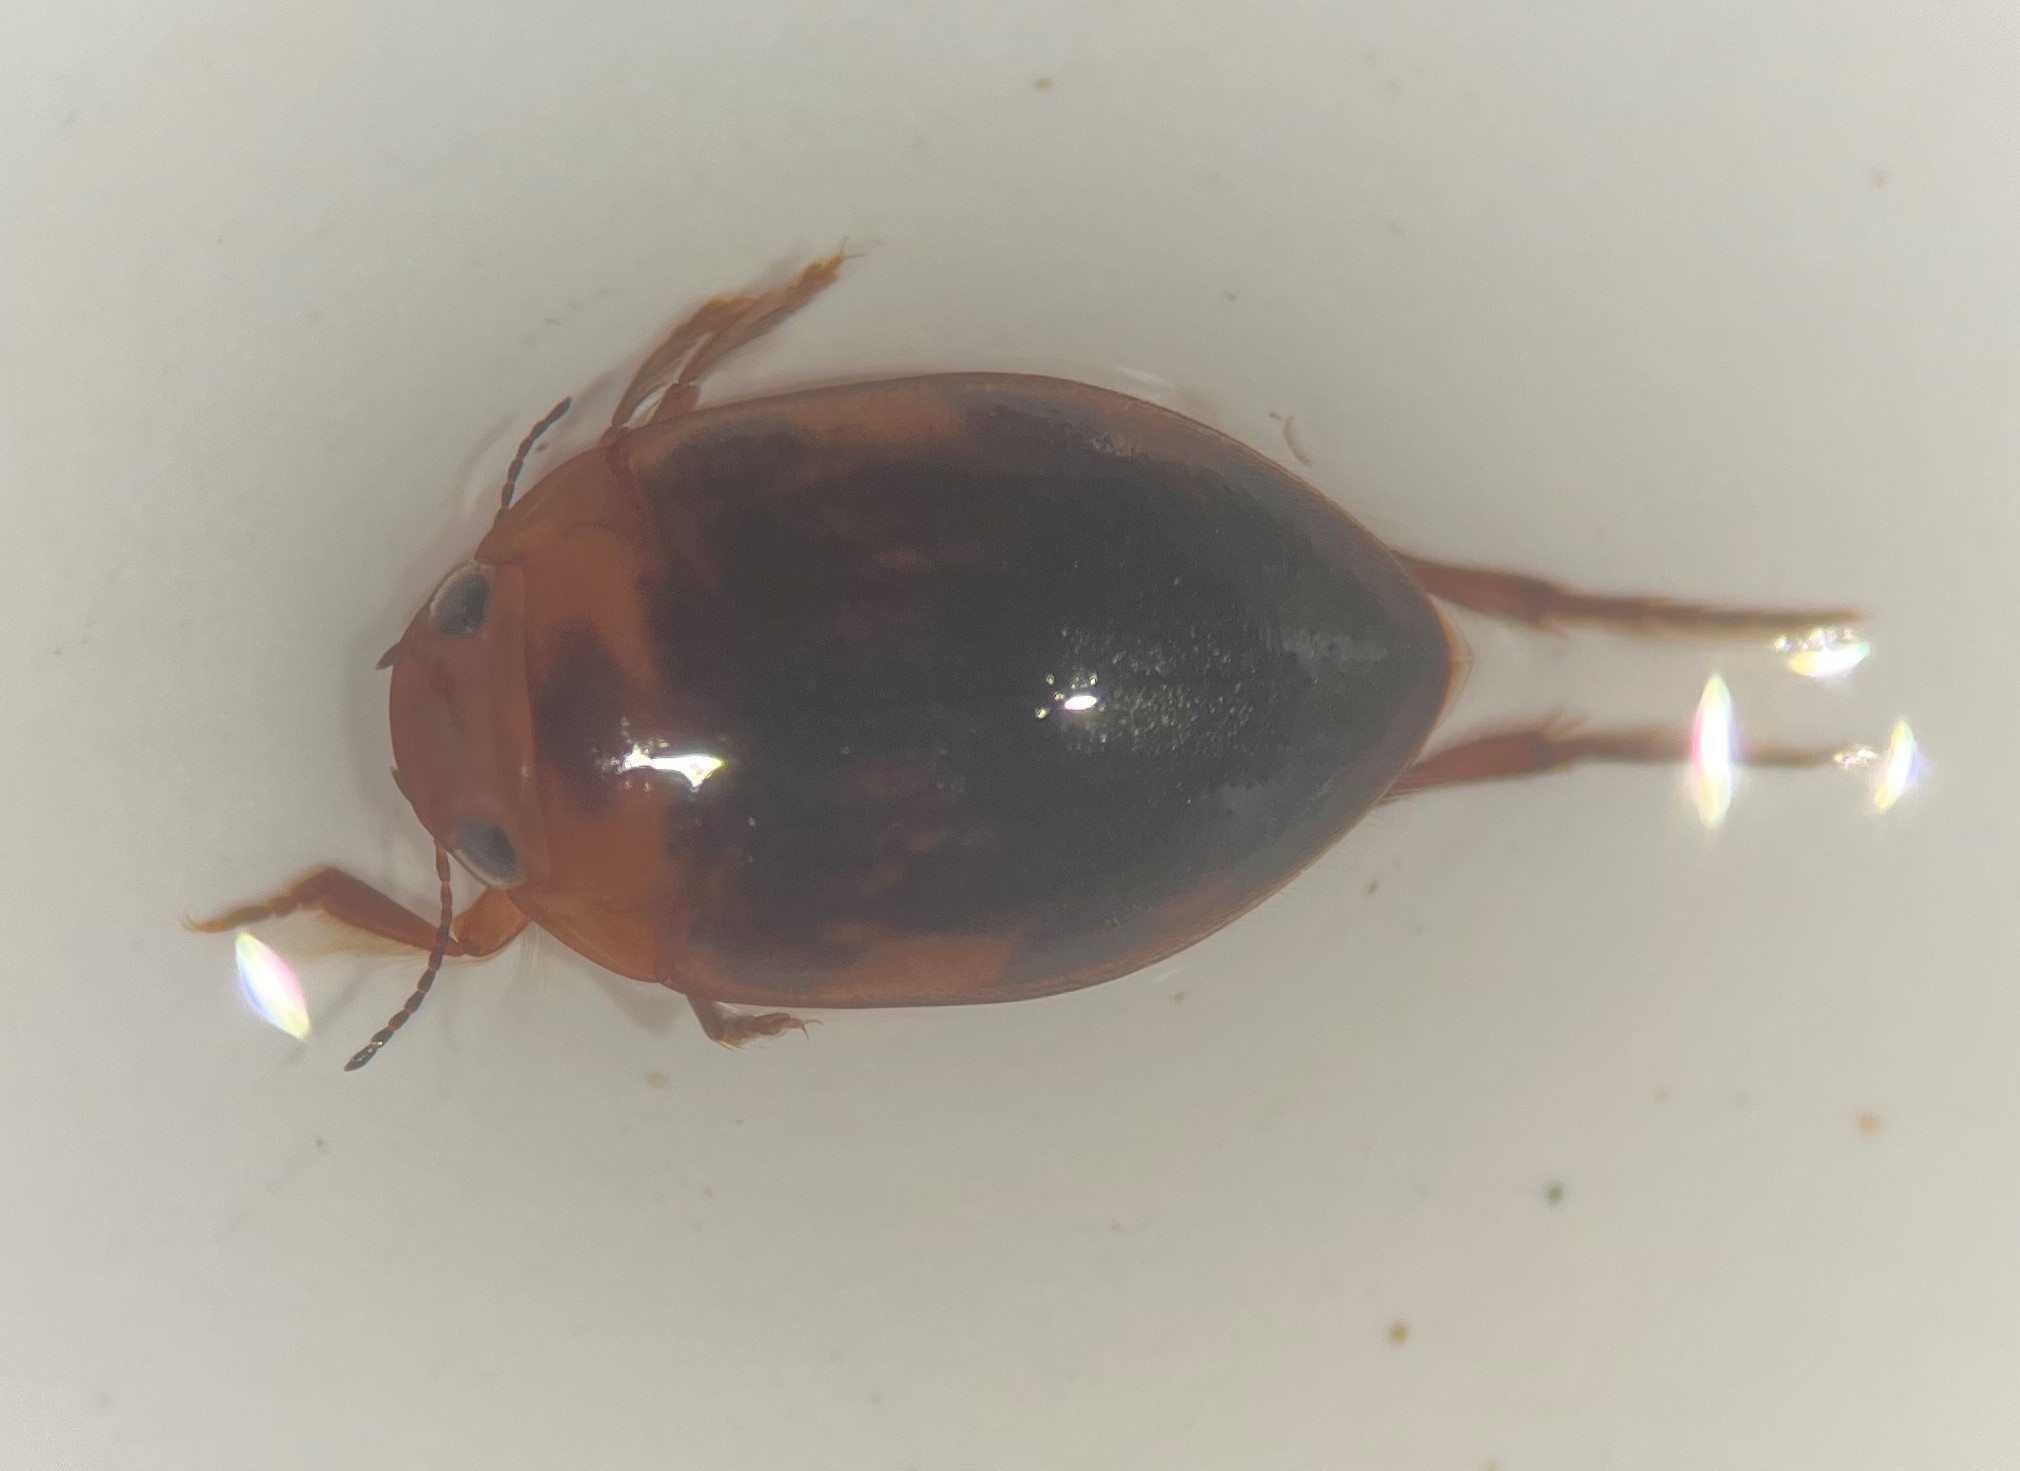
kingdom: Animalia
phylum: Arthropoda
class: Insecta
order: Coleoptera
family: Dytiscidae
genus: Neoporus
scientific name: Neoporus cimicoides
